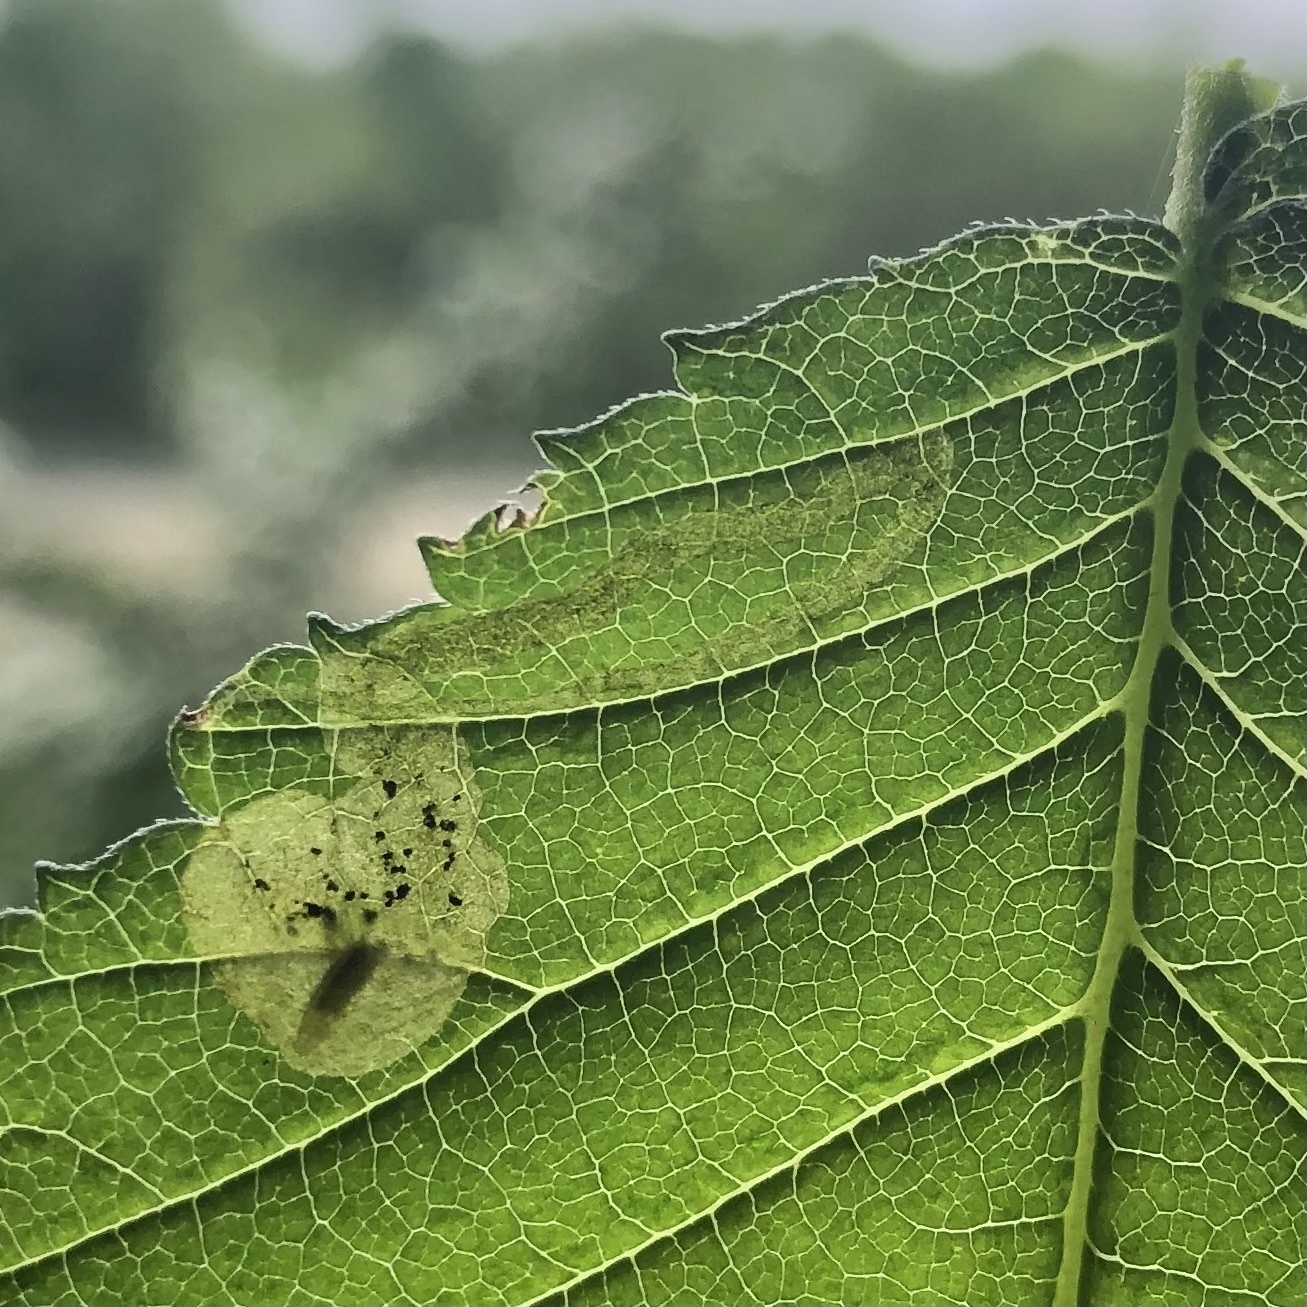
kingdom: Animalia
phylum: Arthropoda
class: Insecta
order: Diptera
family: Agromyzidae
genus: Agromyza
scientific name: Agromyza aristata
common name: Elm agromyzid leafminer
